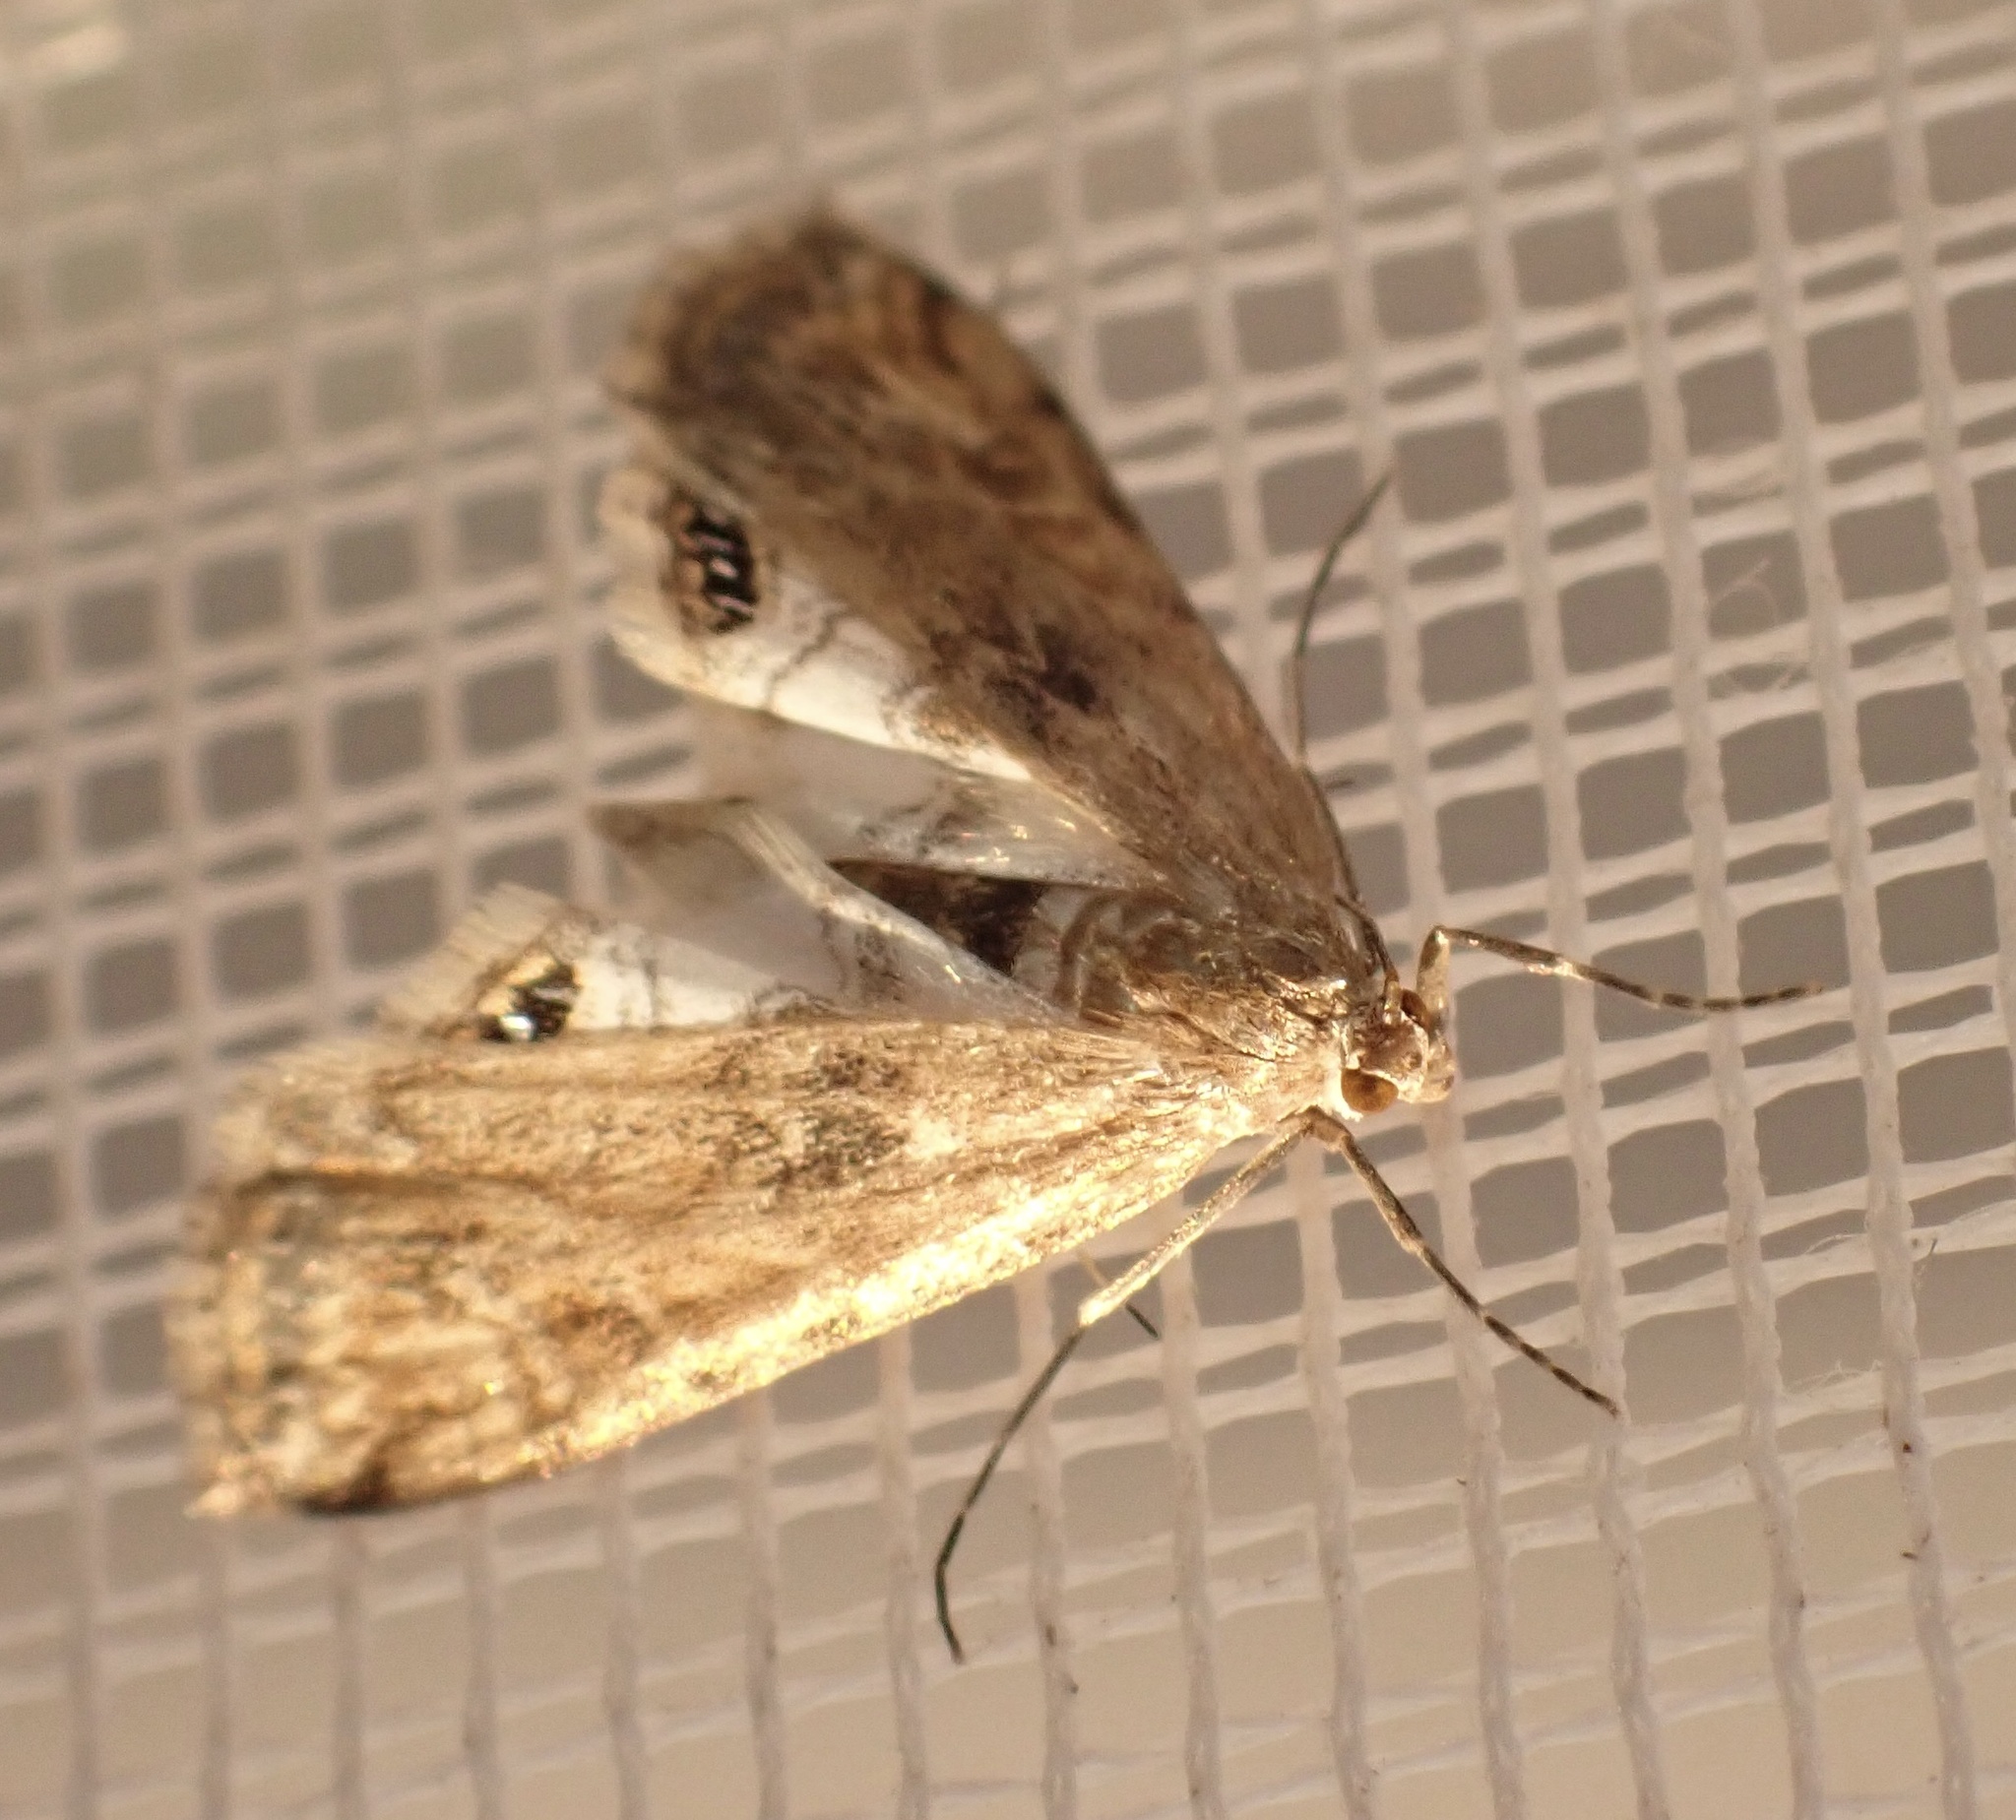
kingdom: Animalia
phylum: Arthropoda
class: Insecta
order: Lepidoptera
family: Crambidae
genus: Cataclysta
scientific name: Cataclysta lemnata
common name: Small china-mark
